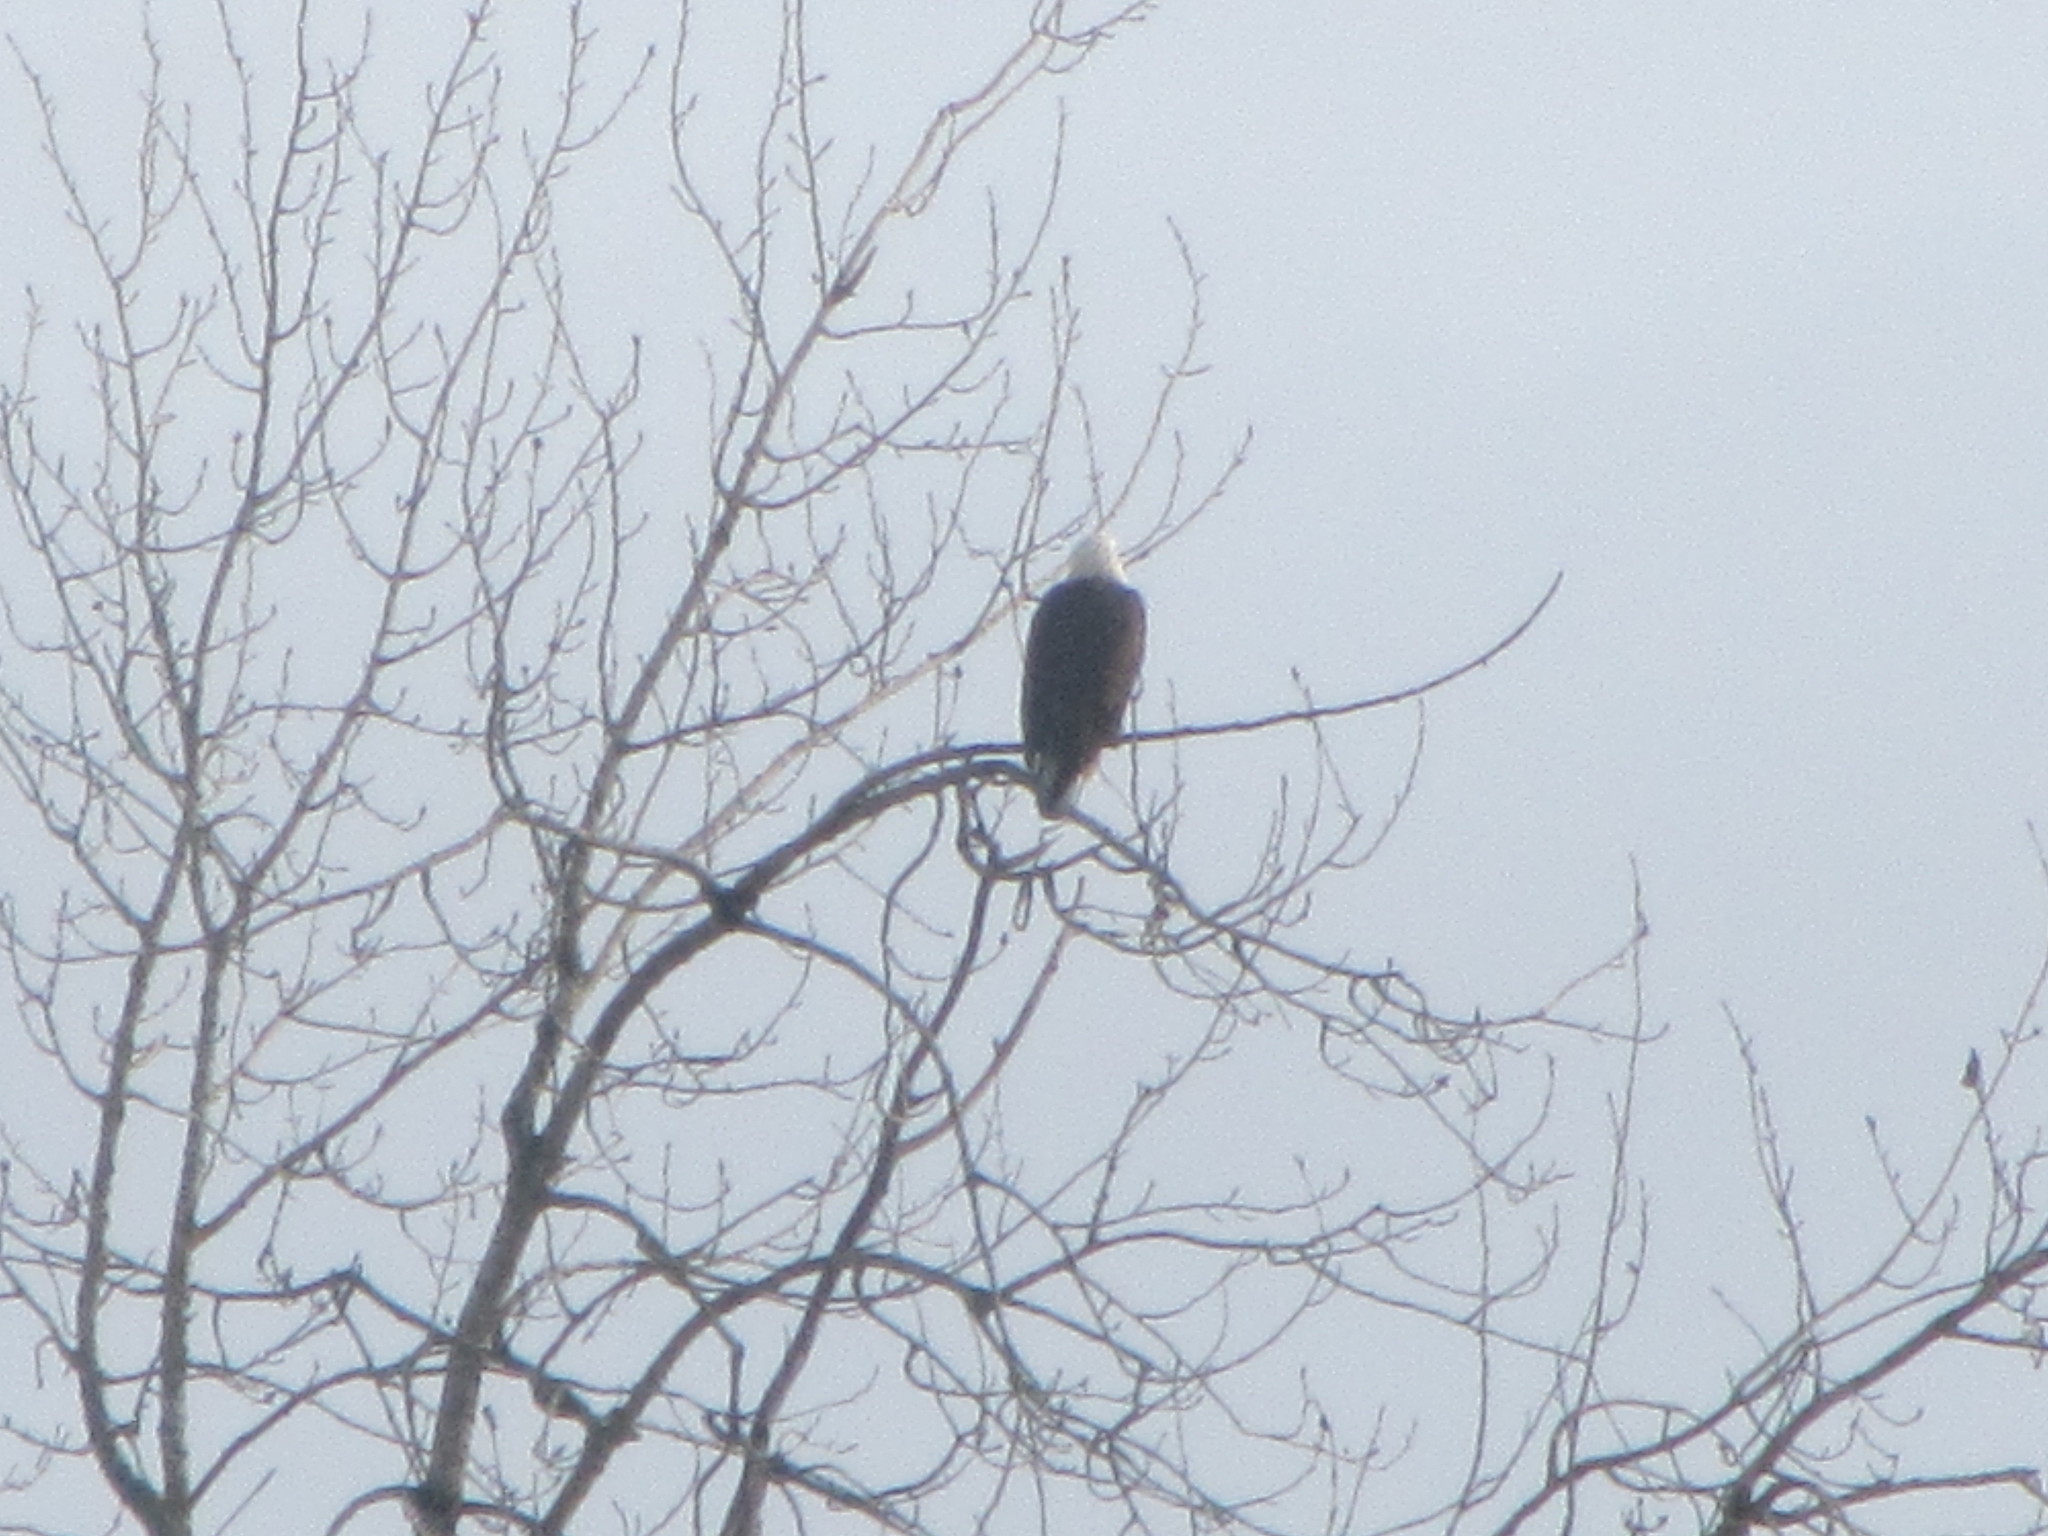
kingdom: Animalia
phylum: Chordata
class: Aves
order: Accipitriformes
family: Accipitridae
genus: Haliaeetus
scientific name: Haliaeetus leucocephalus
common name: Bald eagle
